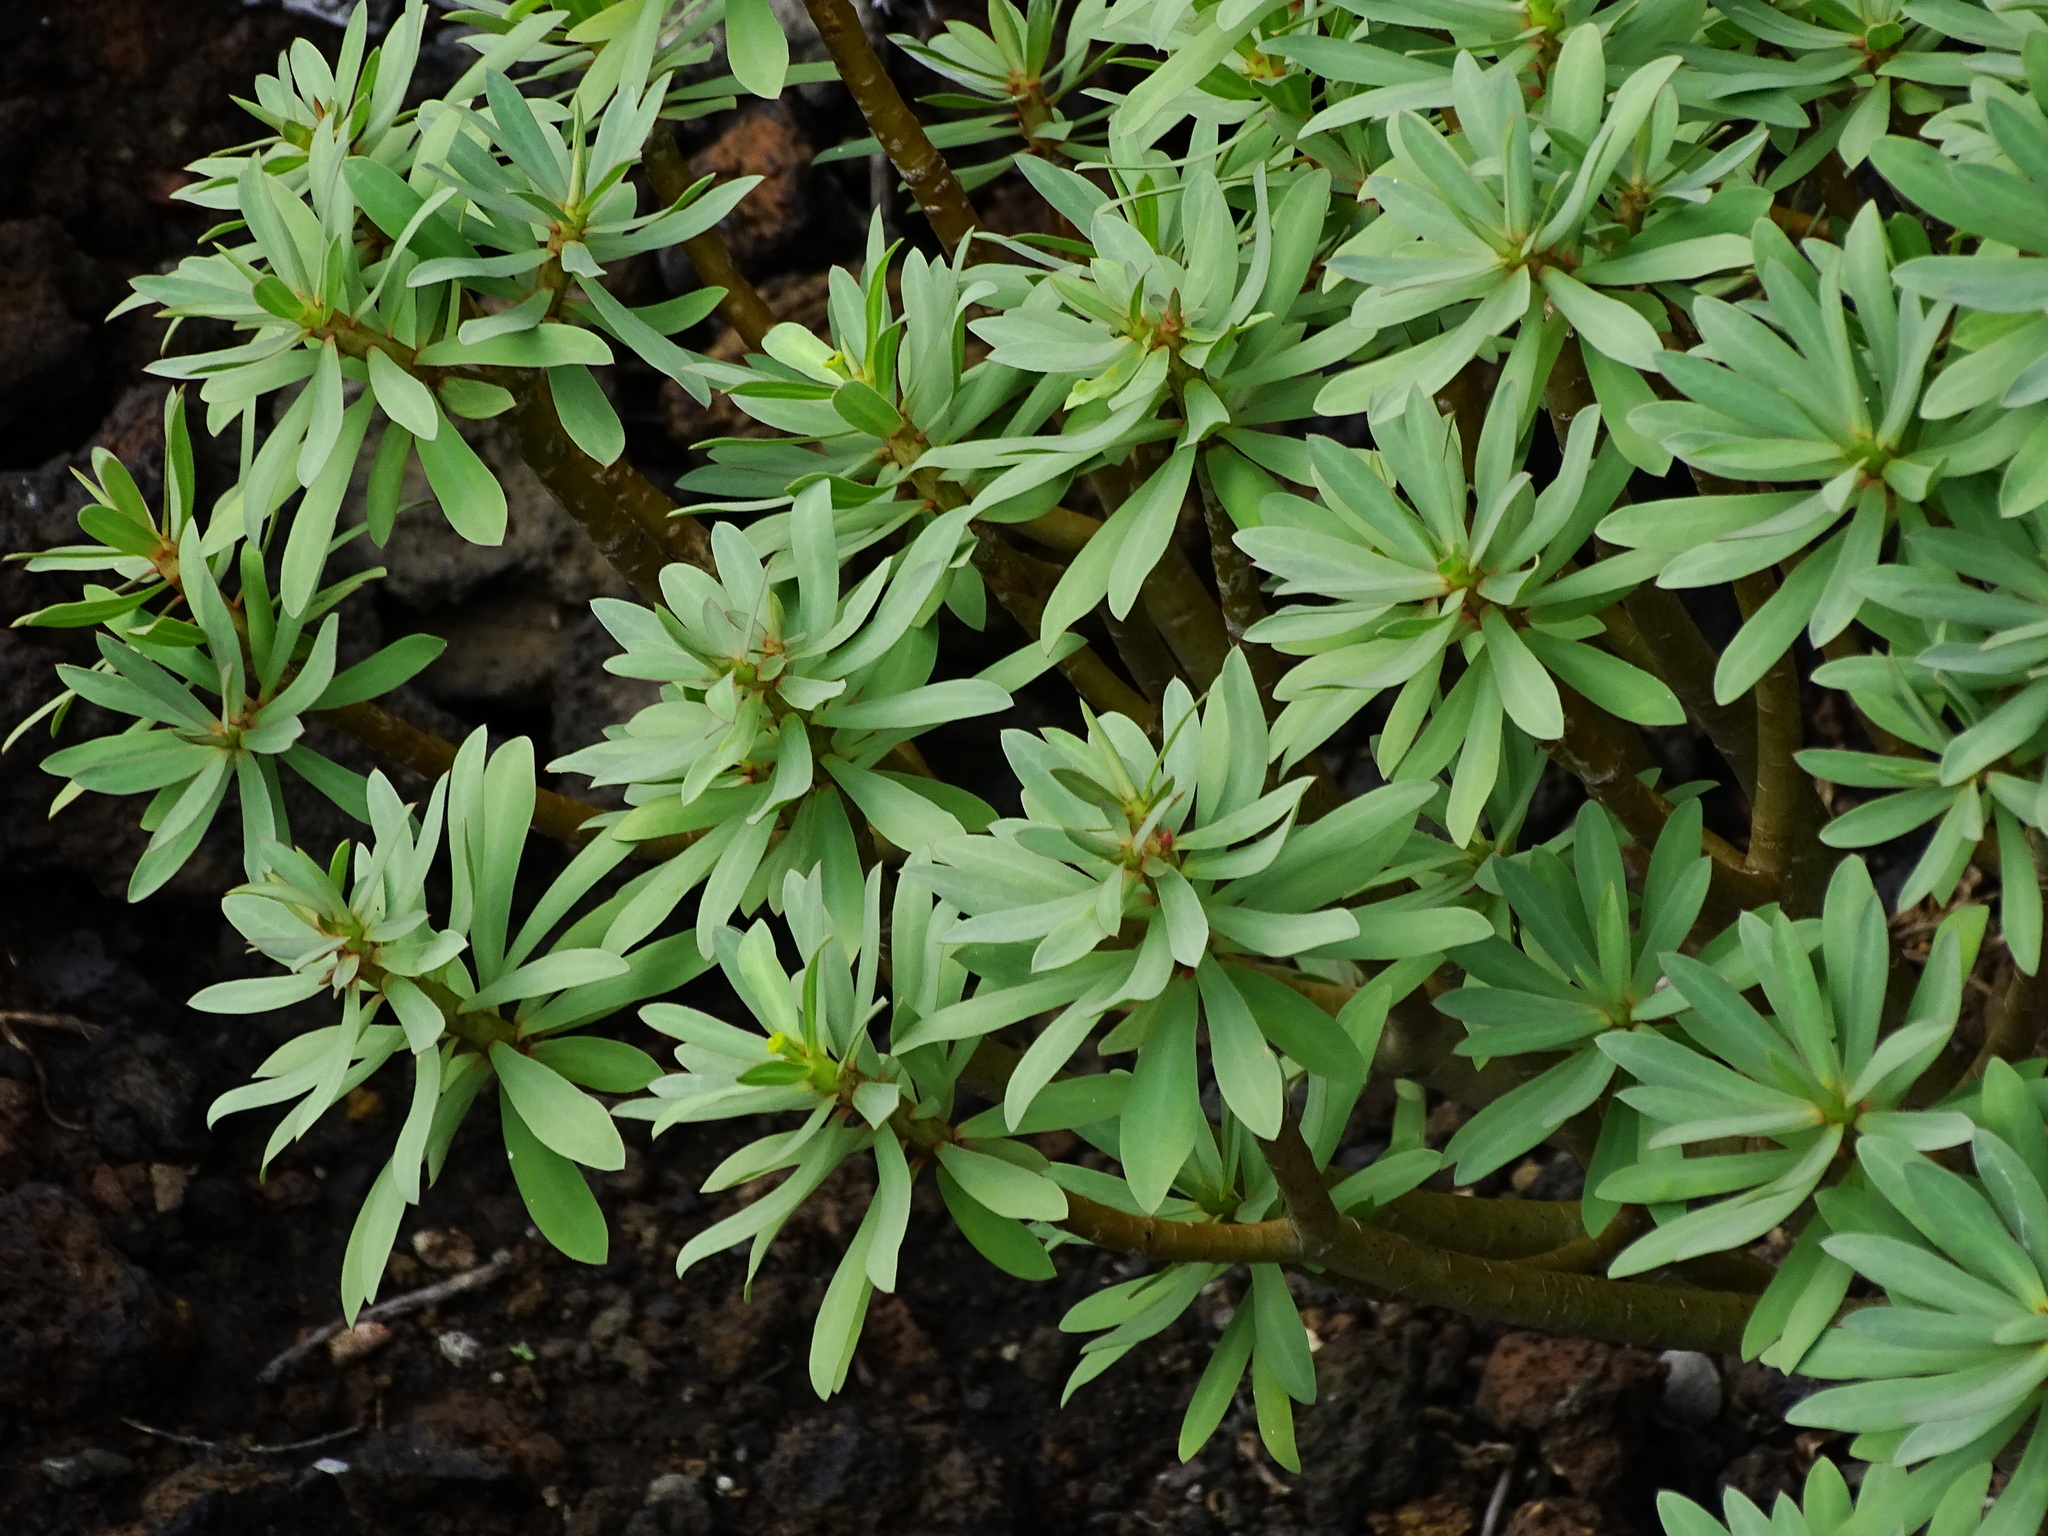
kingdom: Plantae
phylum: Tracheophyta
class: Magnoliopsida
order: Malpighiales
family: Euphorbiaceae
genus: Euphorbia
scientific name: Euphorbia balsamifera
